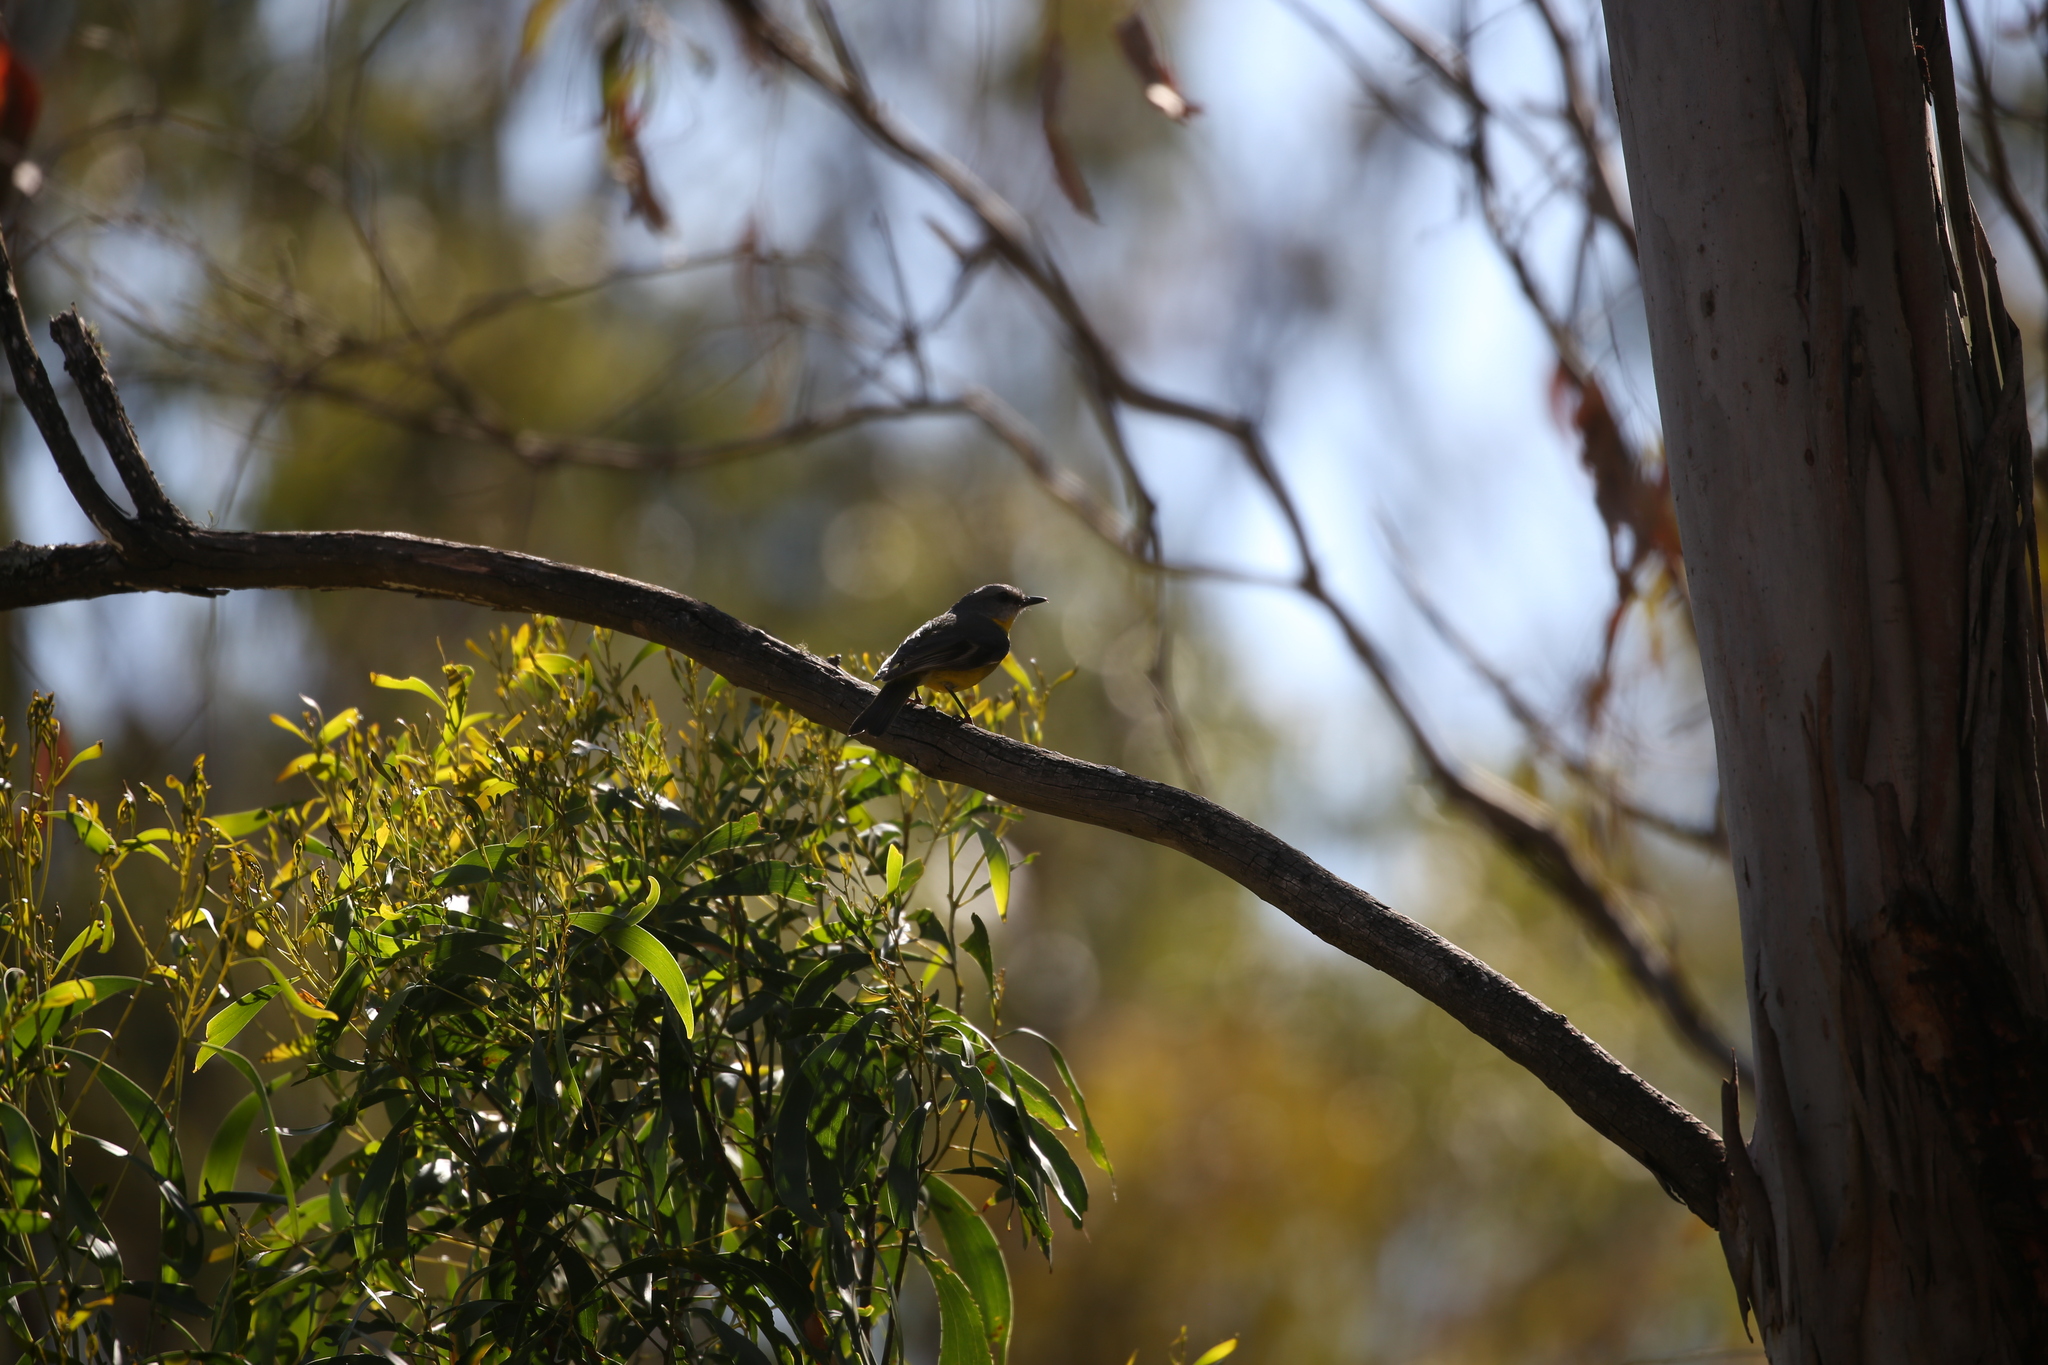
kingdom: Animalia
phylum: Chordata
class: Aves
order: Passeriformes
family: Petroicidae
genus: Eopsaltria
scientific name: Eopsaltria australis
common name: Eastern yellow robin
